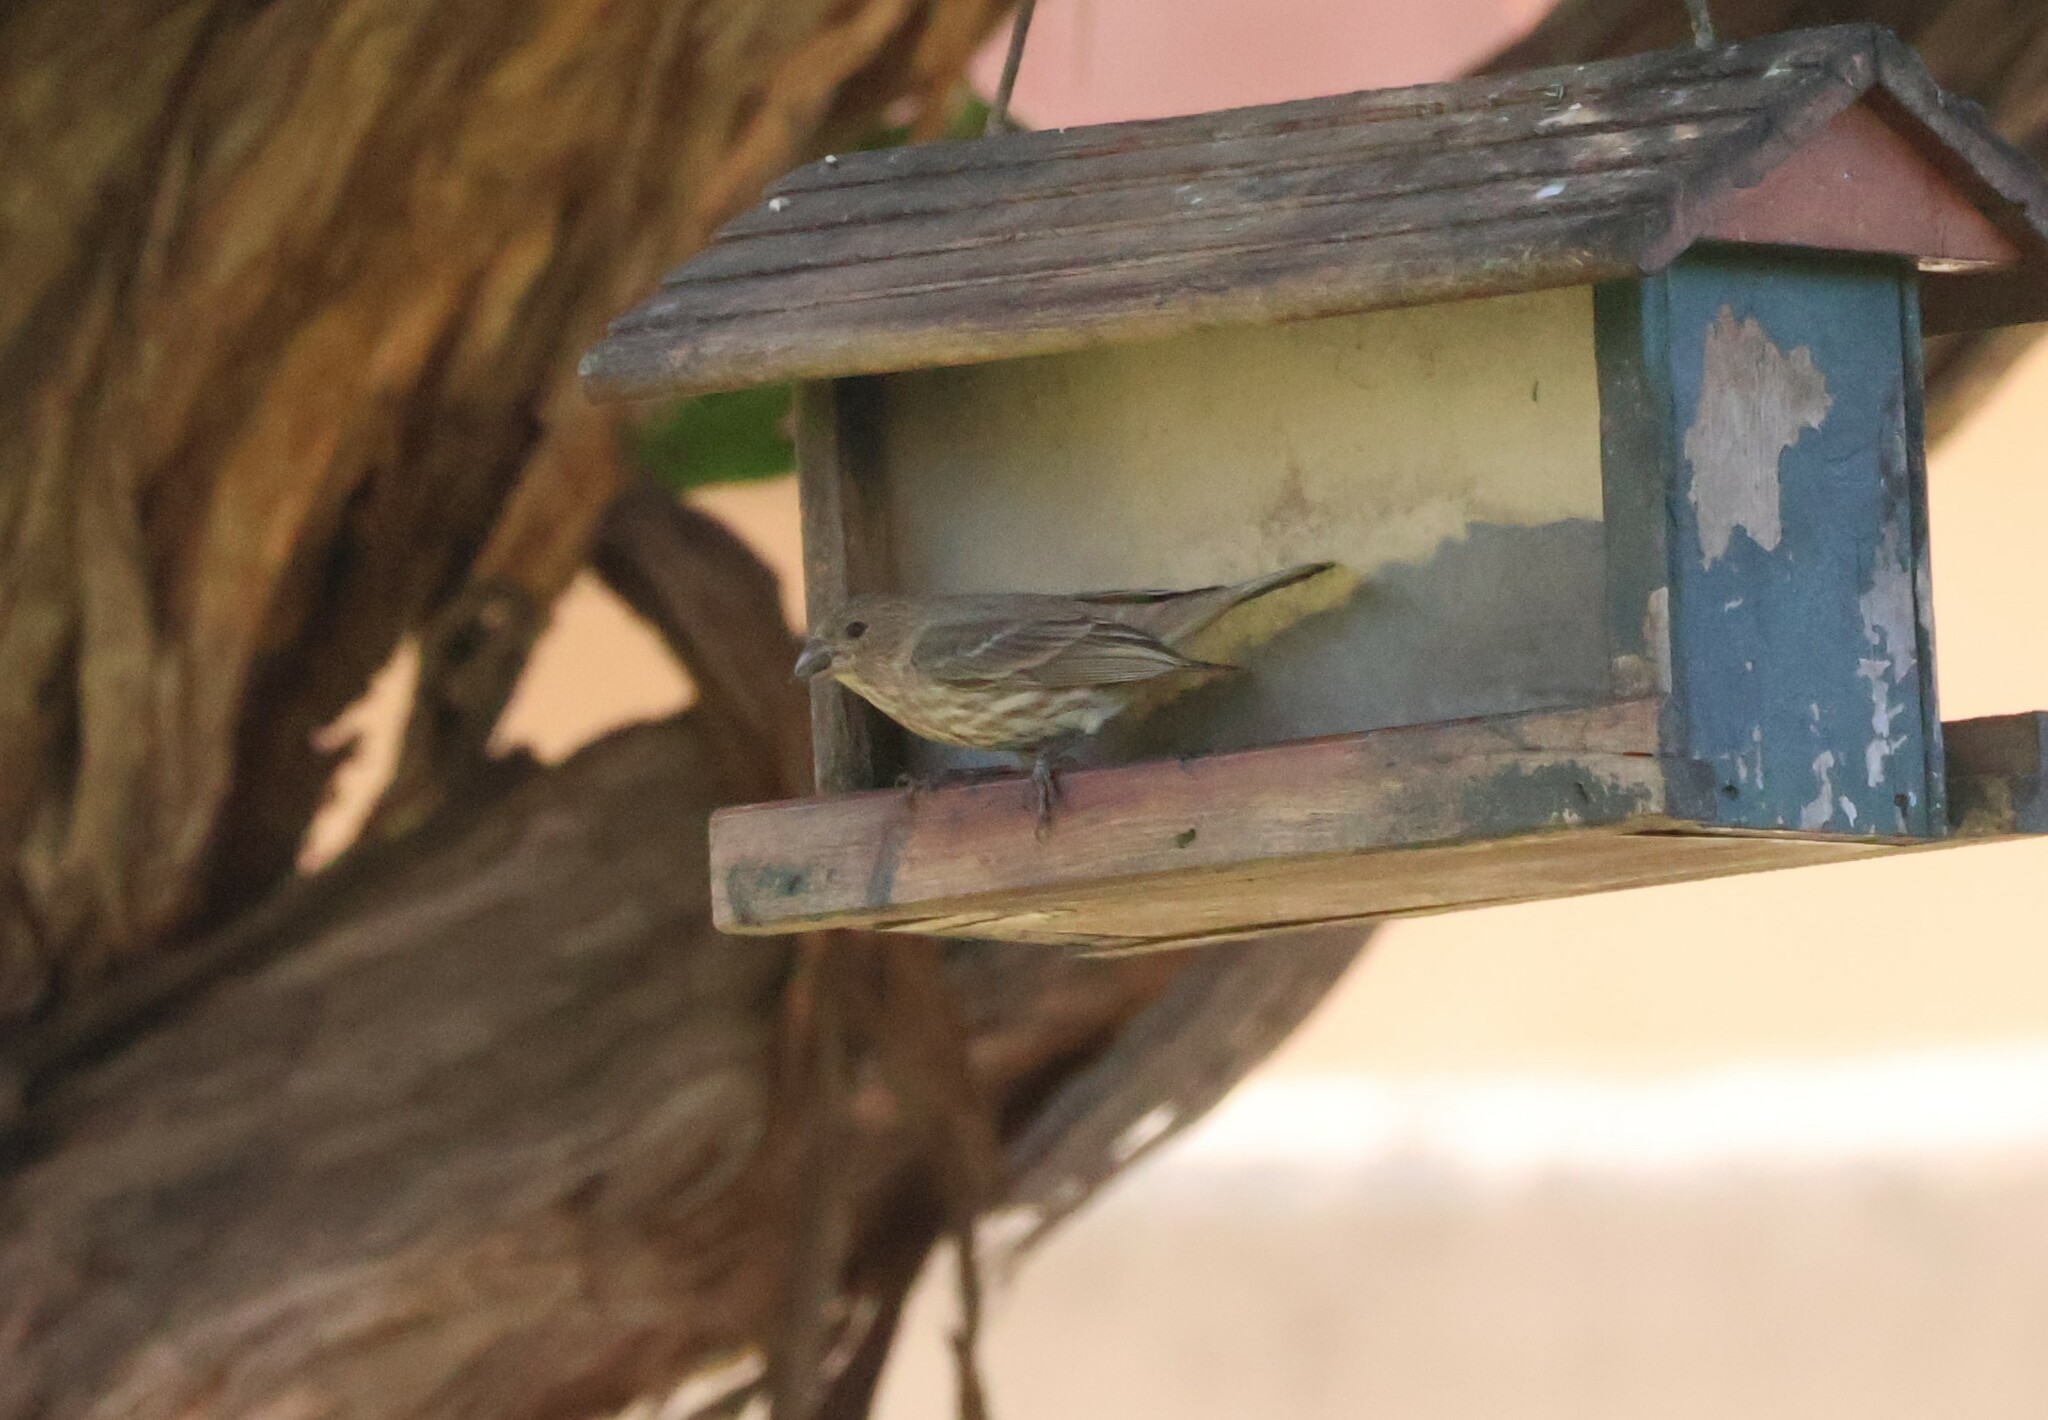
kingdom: Animalia
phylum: Chordata
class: Aves
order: Passeriformes
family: Fringillidae
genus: Haemorhous
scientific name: Haemorhous mexicanus
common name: House finch
